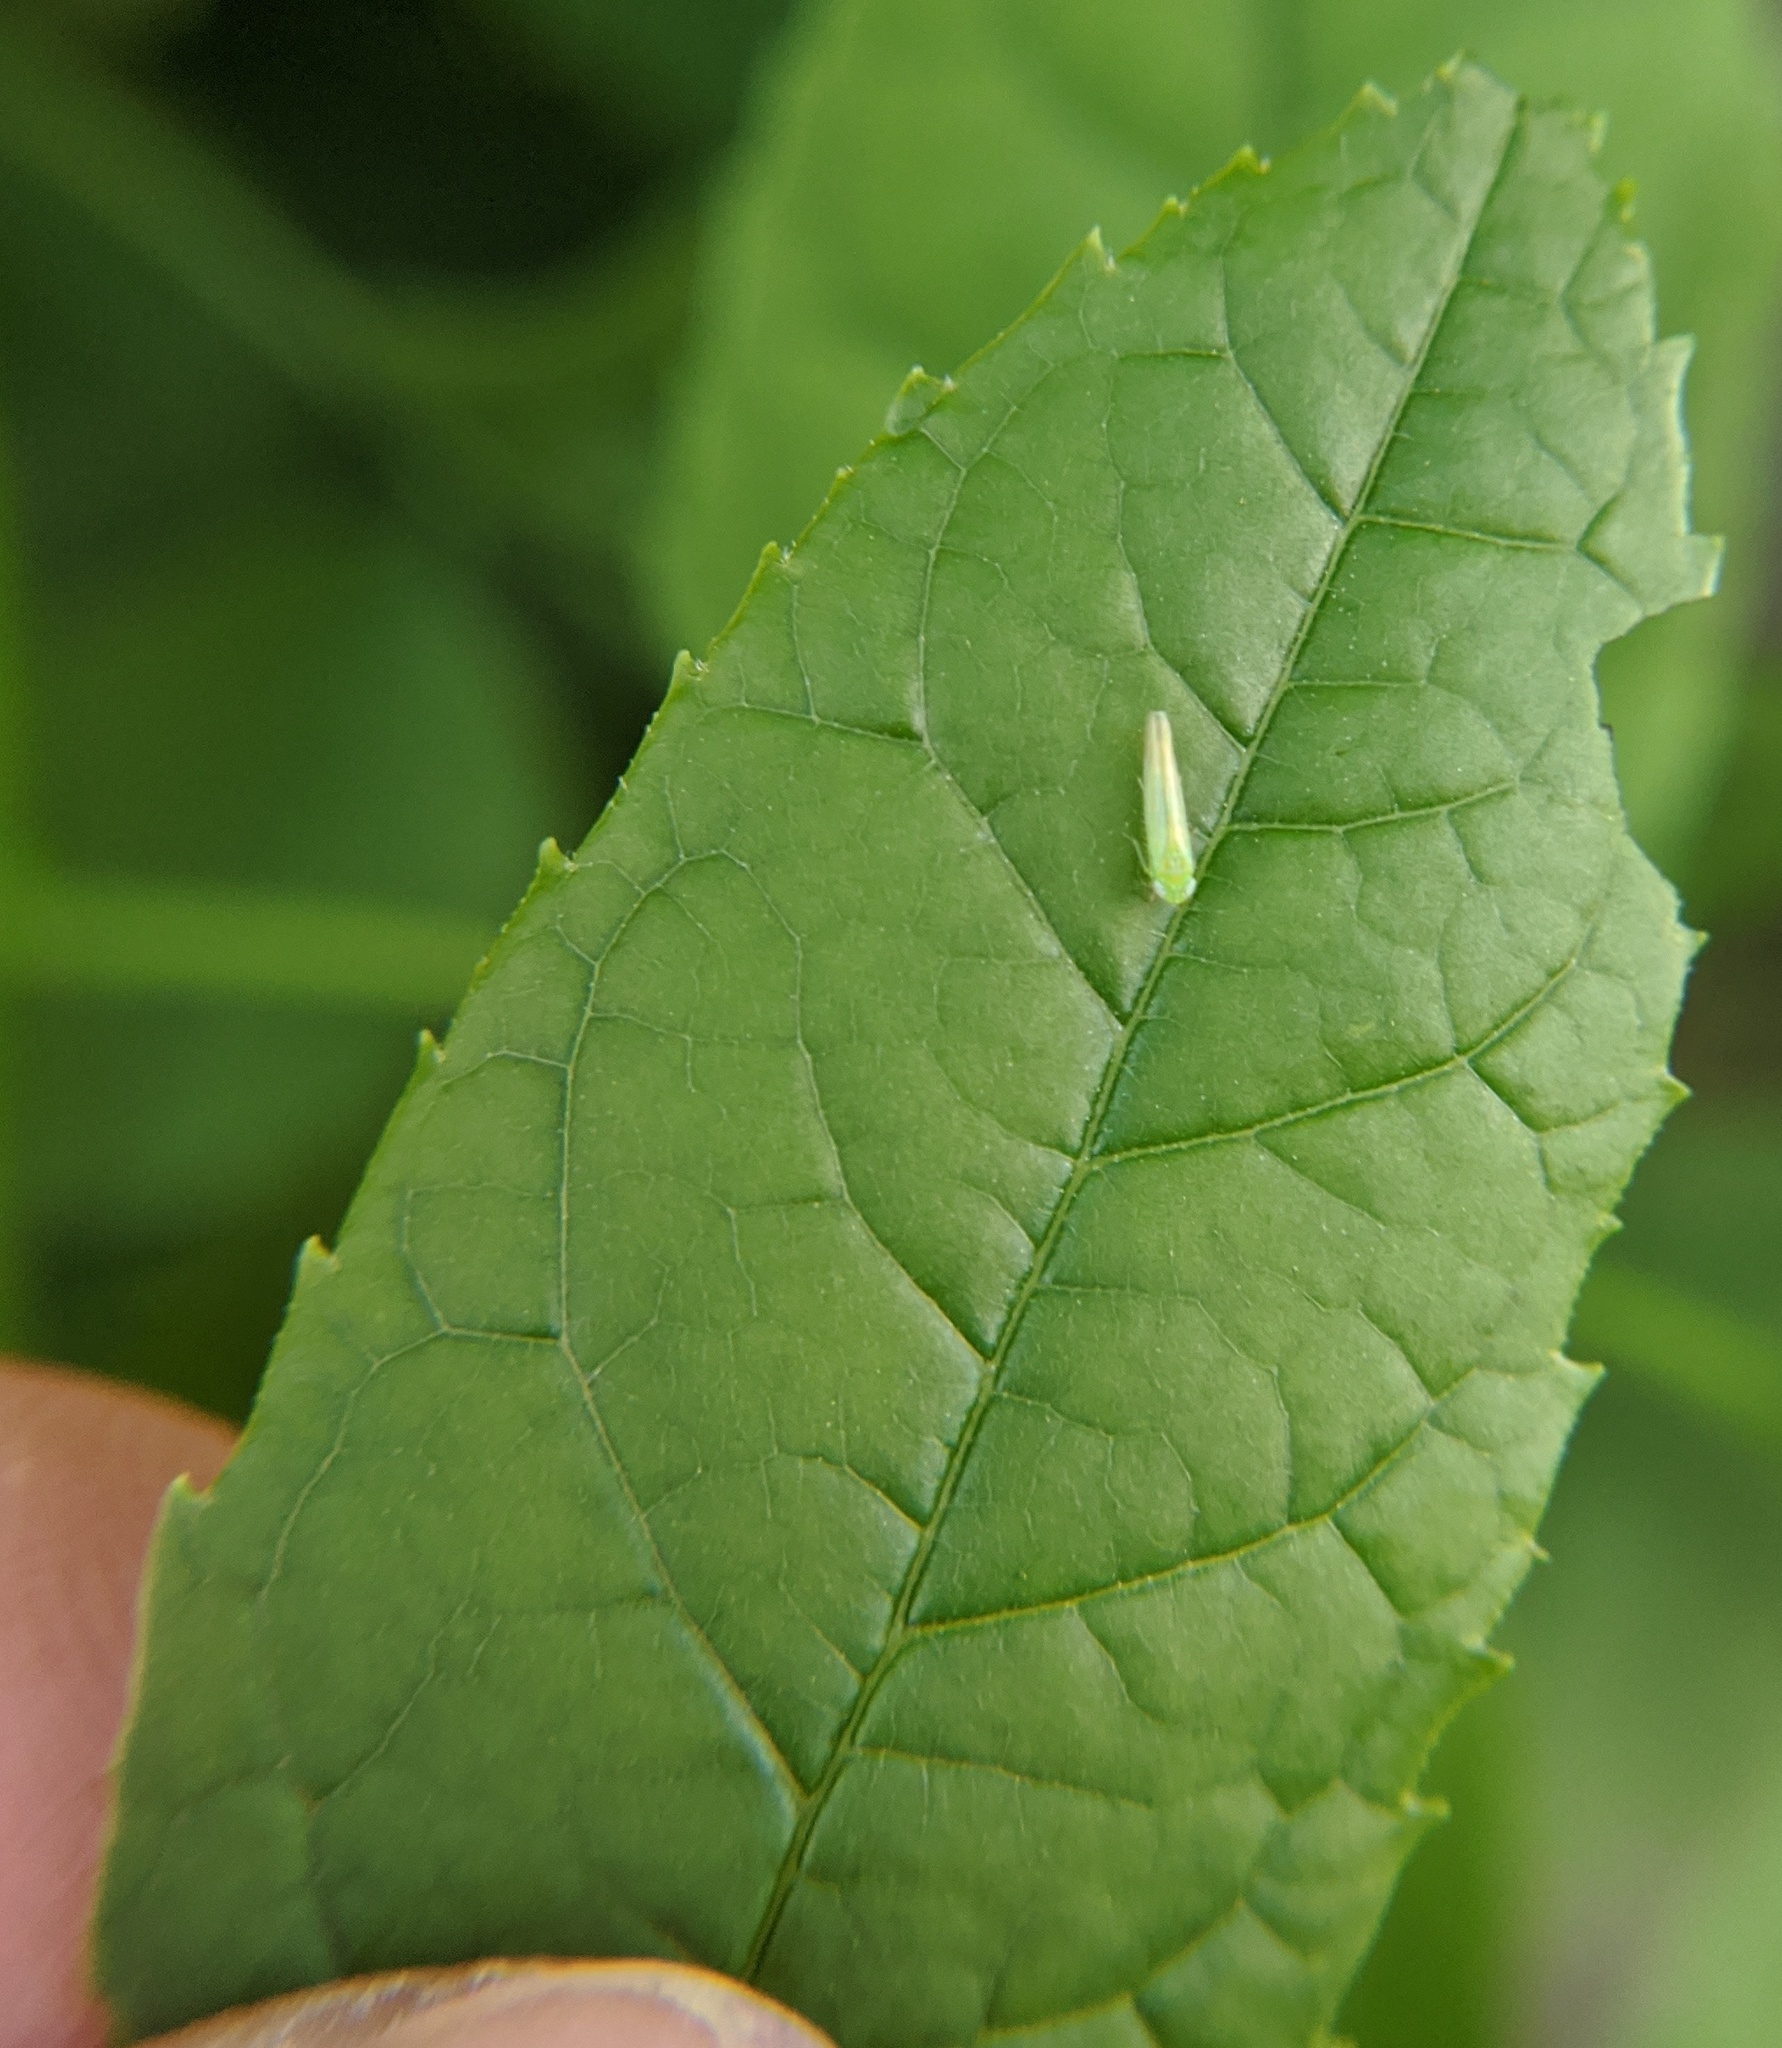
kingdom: Animalia
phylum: Arthropoda
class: Insecta
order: Hemiptera
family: Cicadellidae
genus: Empoasca
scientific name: Empoasca fabae
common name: Potato leafhopper
